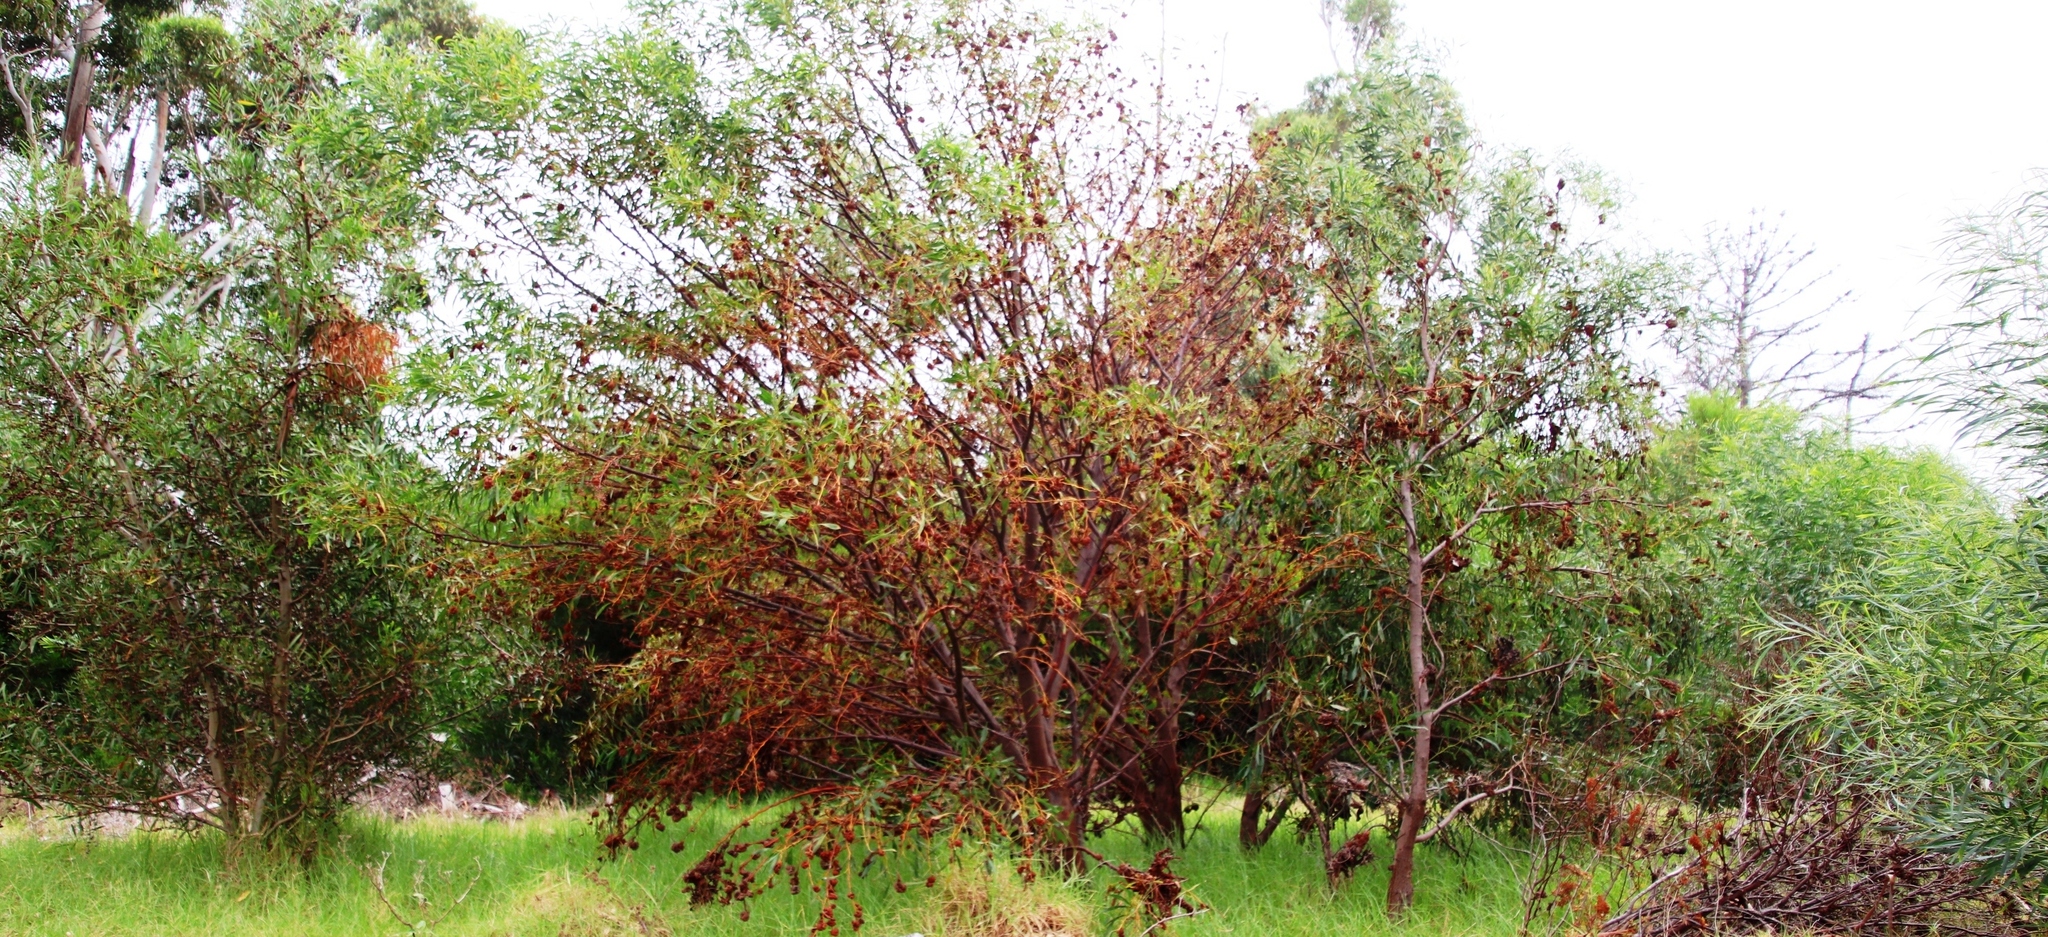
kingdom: Plantae
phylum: Tracheophyta
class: Magnoliopsida
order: Fabales
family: Fabaceae
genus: Acacia
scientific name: Acacia saligna
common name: Orange wattle
